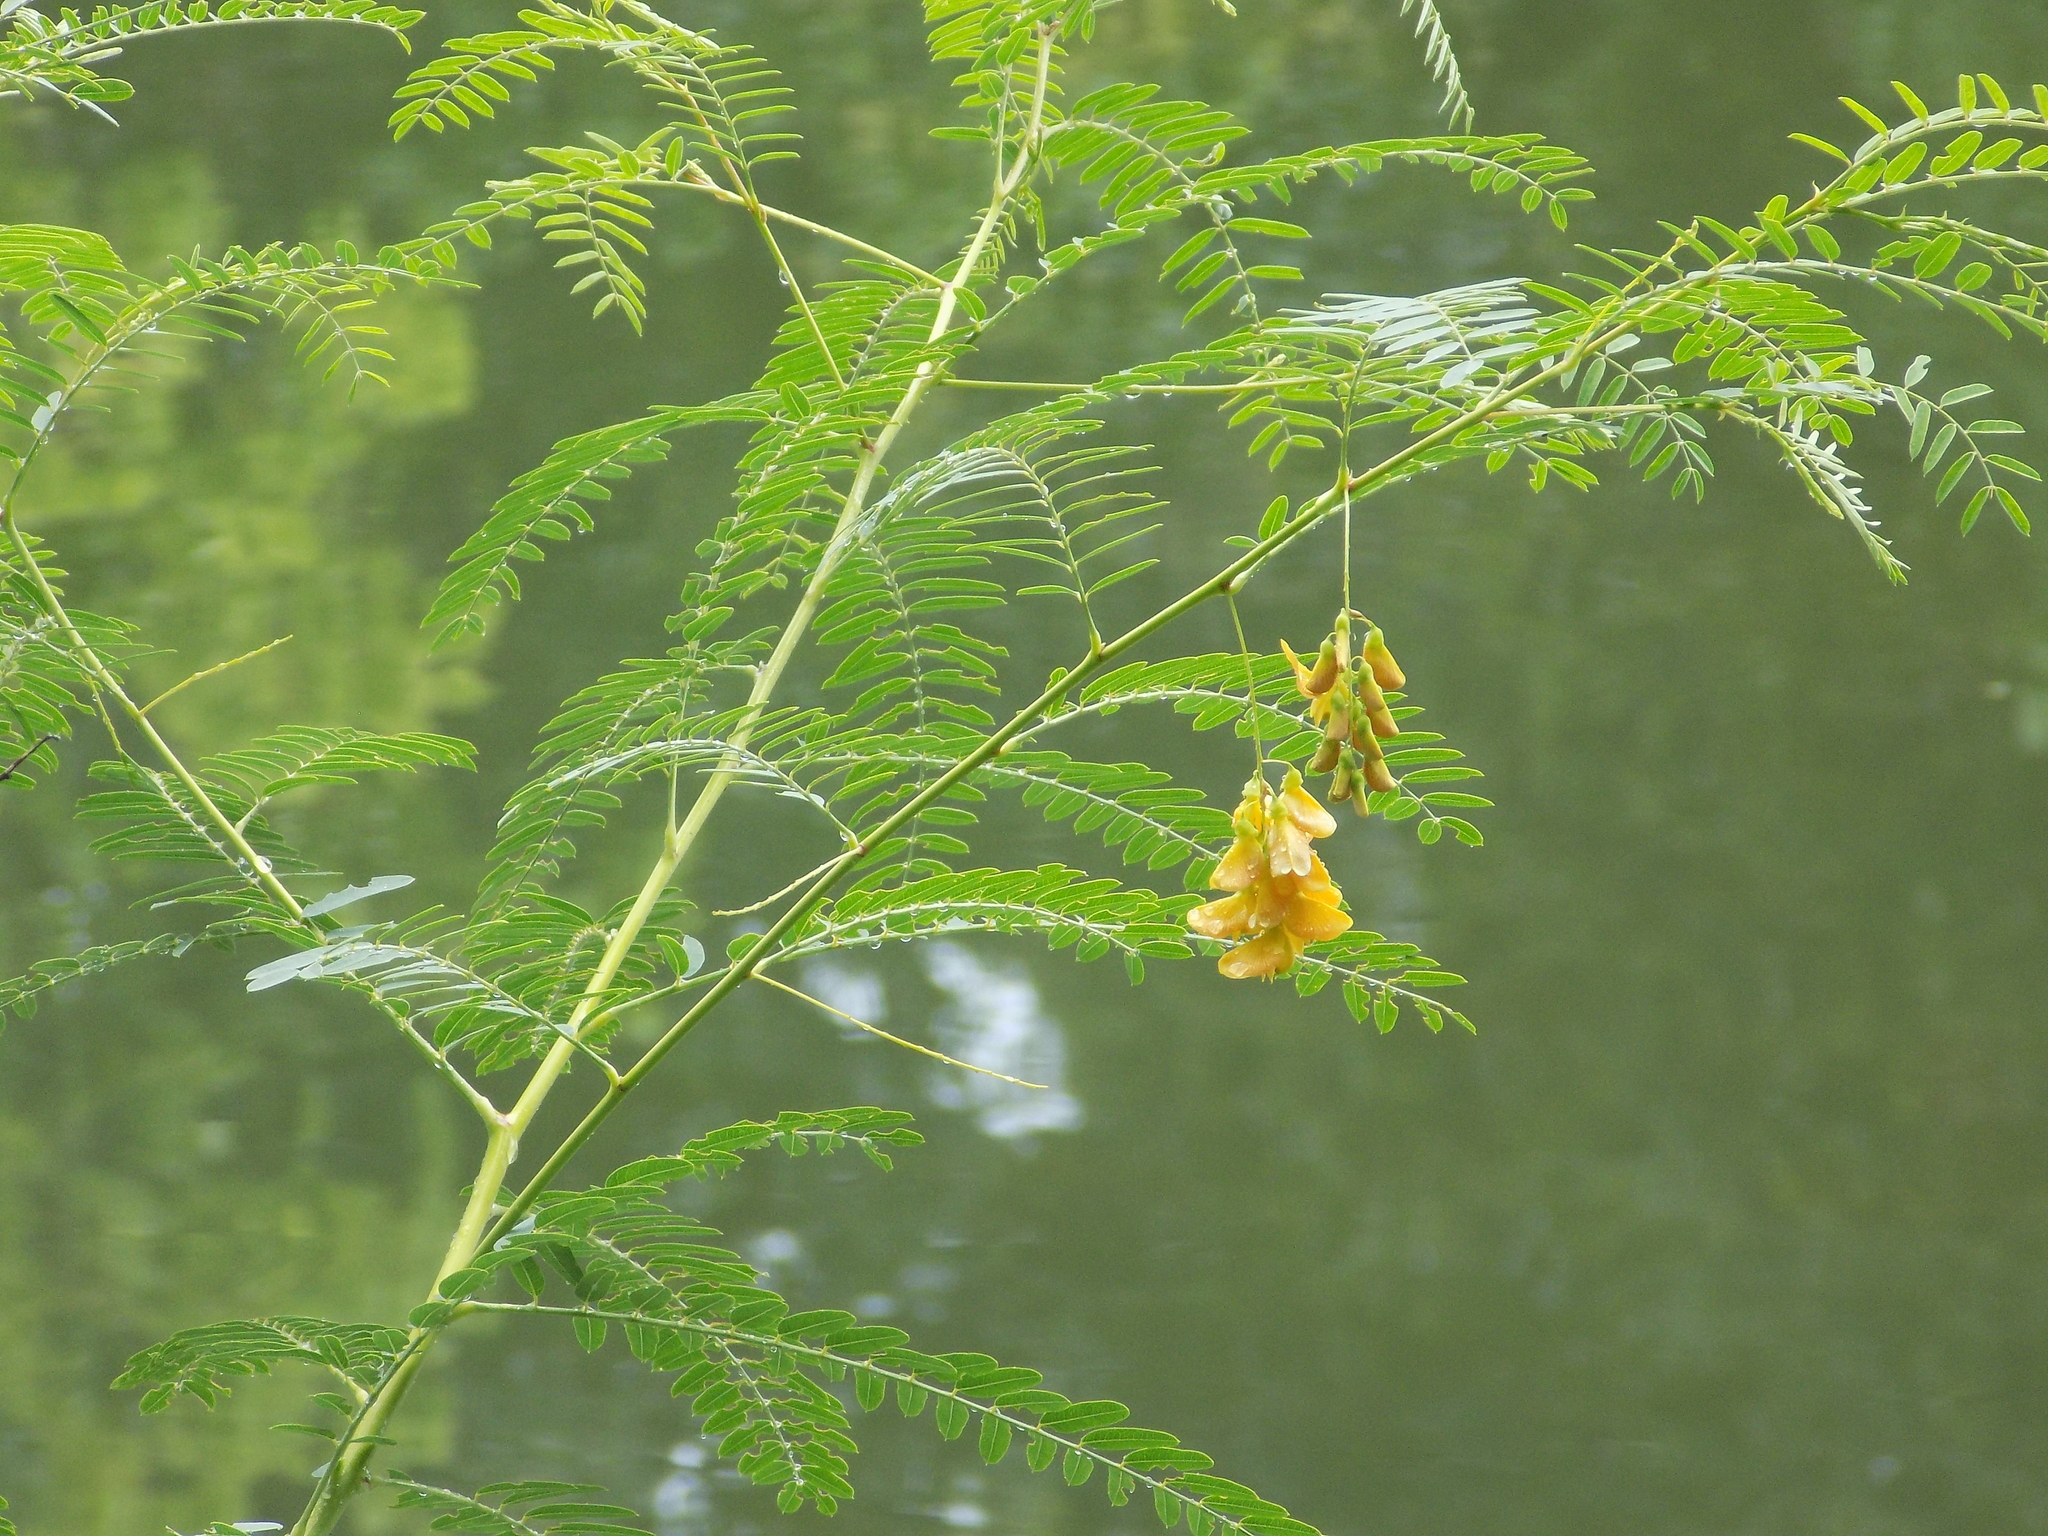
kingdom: Plantae
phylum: Tracheophyta
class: Magnoliopsida
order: Fabales
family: Fabaceae
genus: Sesbania
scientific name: Sesbania drummondii
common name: Poison-bean
